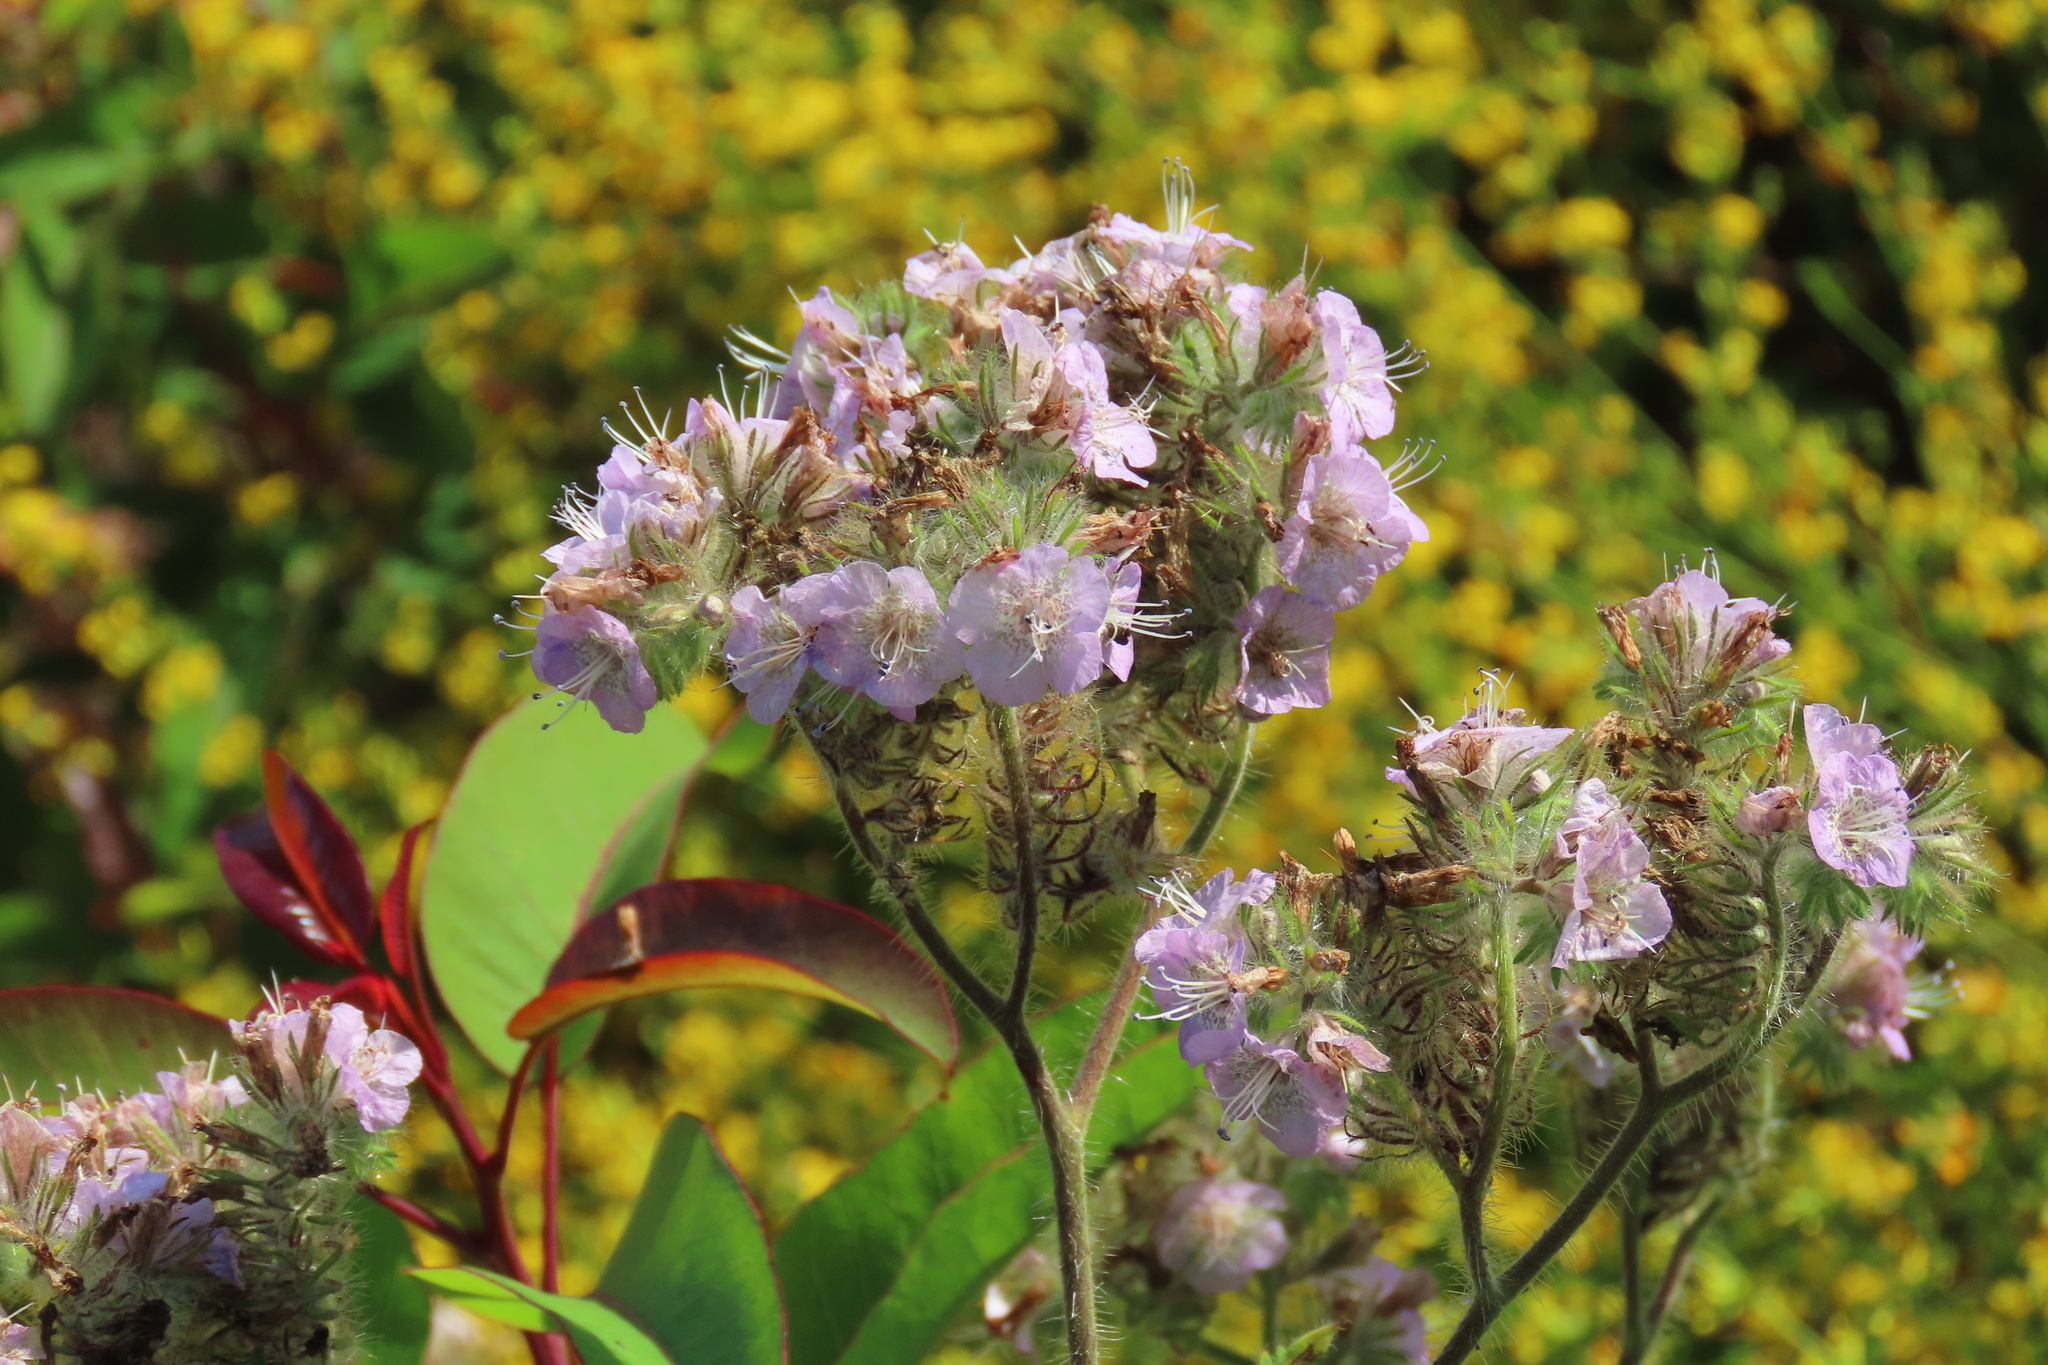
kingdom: Plantae
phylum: Tracheophyta
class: Magnoliopsida
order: Boraginales
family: Hydrophyllaceae
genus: Phacelia
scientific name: Phacelia cicutaria
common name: Caterpillar phacelia
